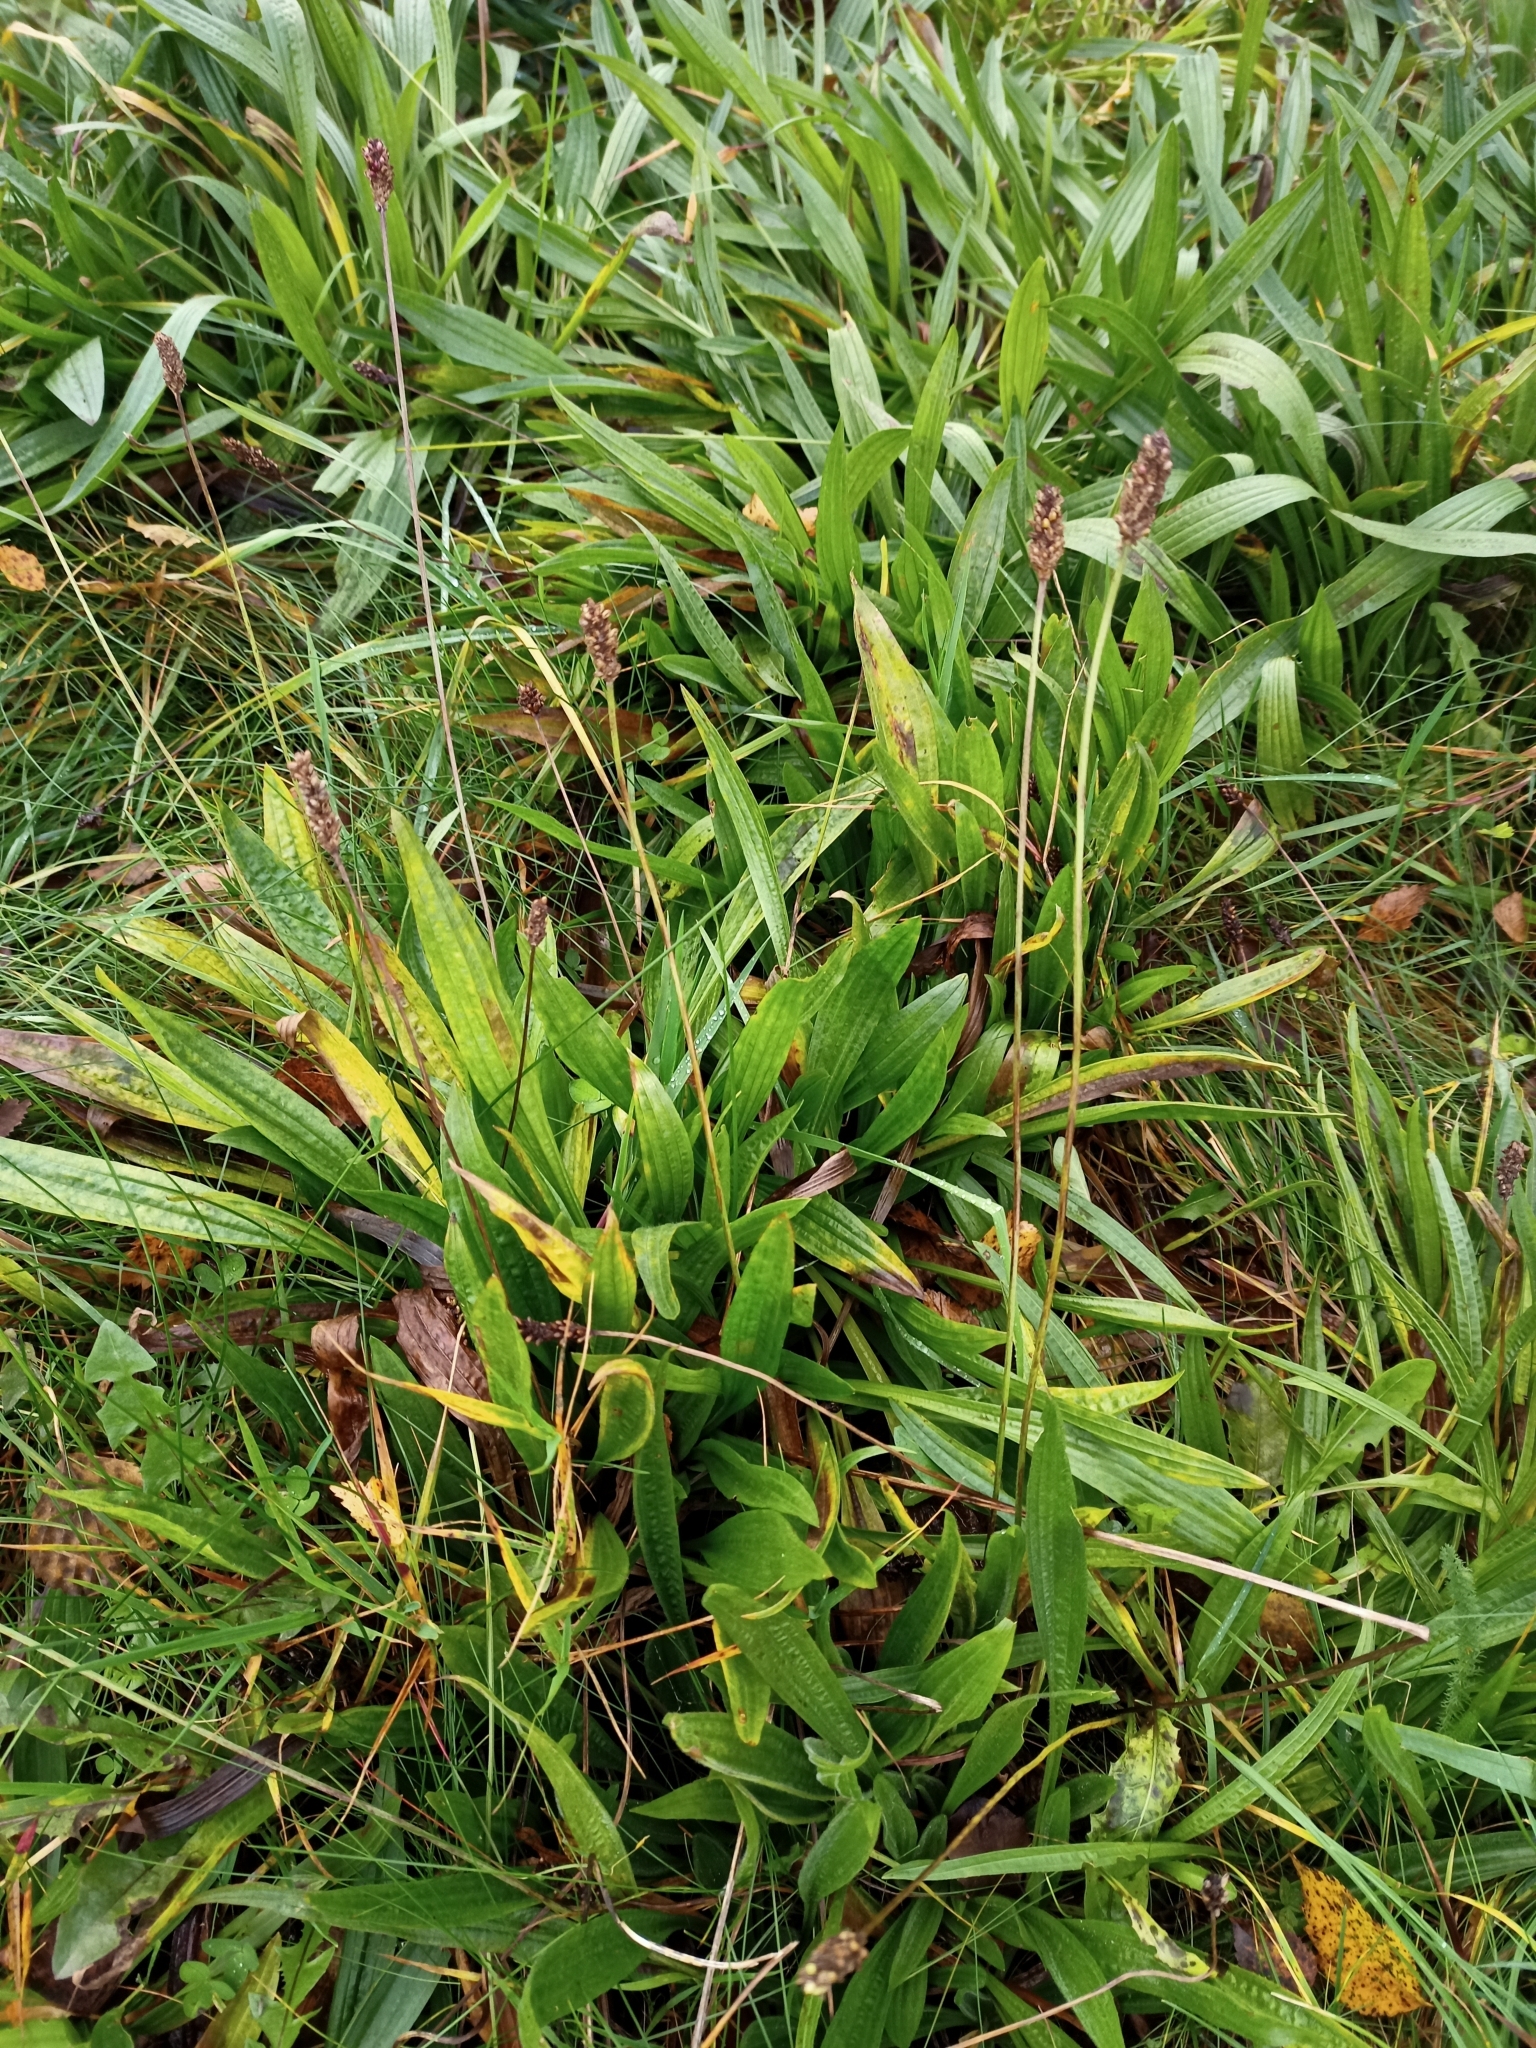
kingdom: Plantae
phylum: Tracheophyta
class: Magnoliopsida
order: Lamiales
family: Plantaginaceae
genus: Plantago
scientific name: Plantago lanceolata
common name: Ribwort plantain
